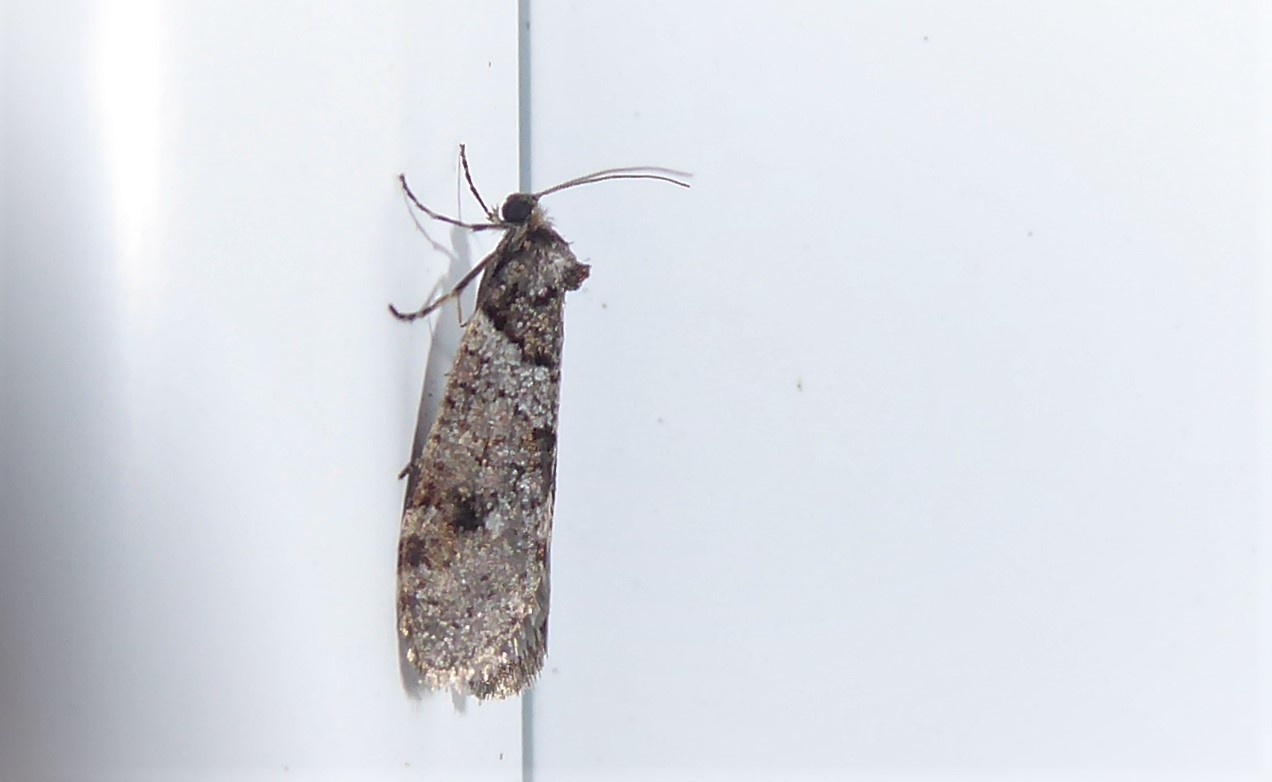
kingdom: Animalia
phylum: Arthropoda
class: Insecta
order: Lepidoptera
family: Psychidae
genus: Lepidoscia
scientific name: Lepidoscia heliochares
